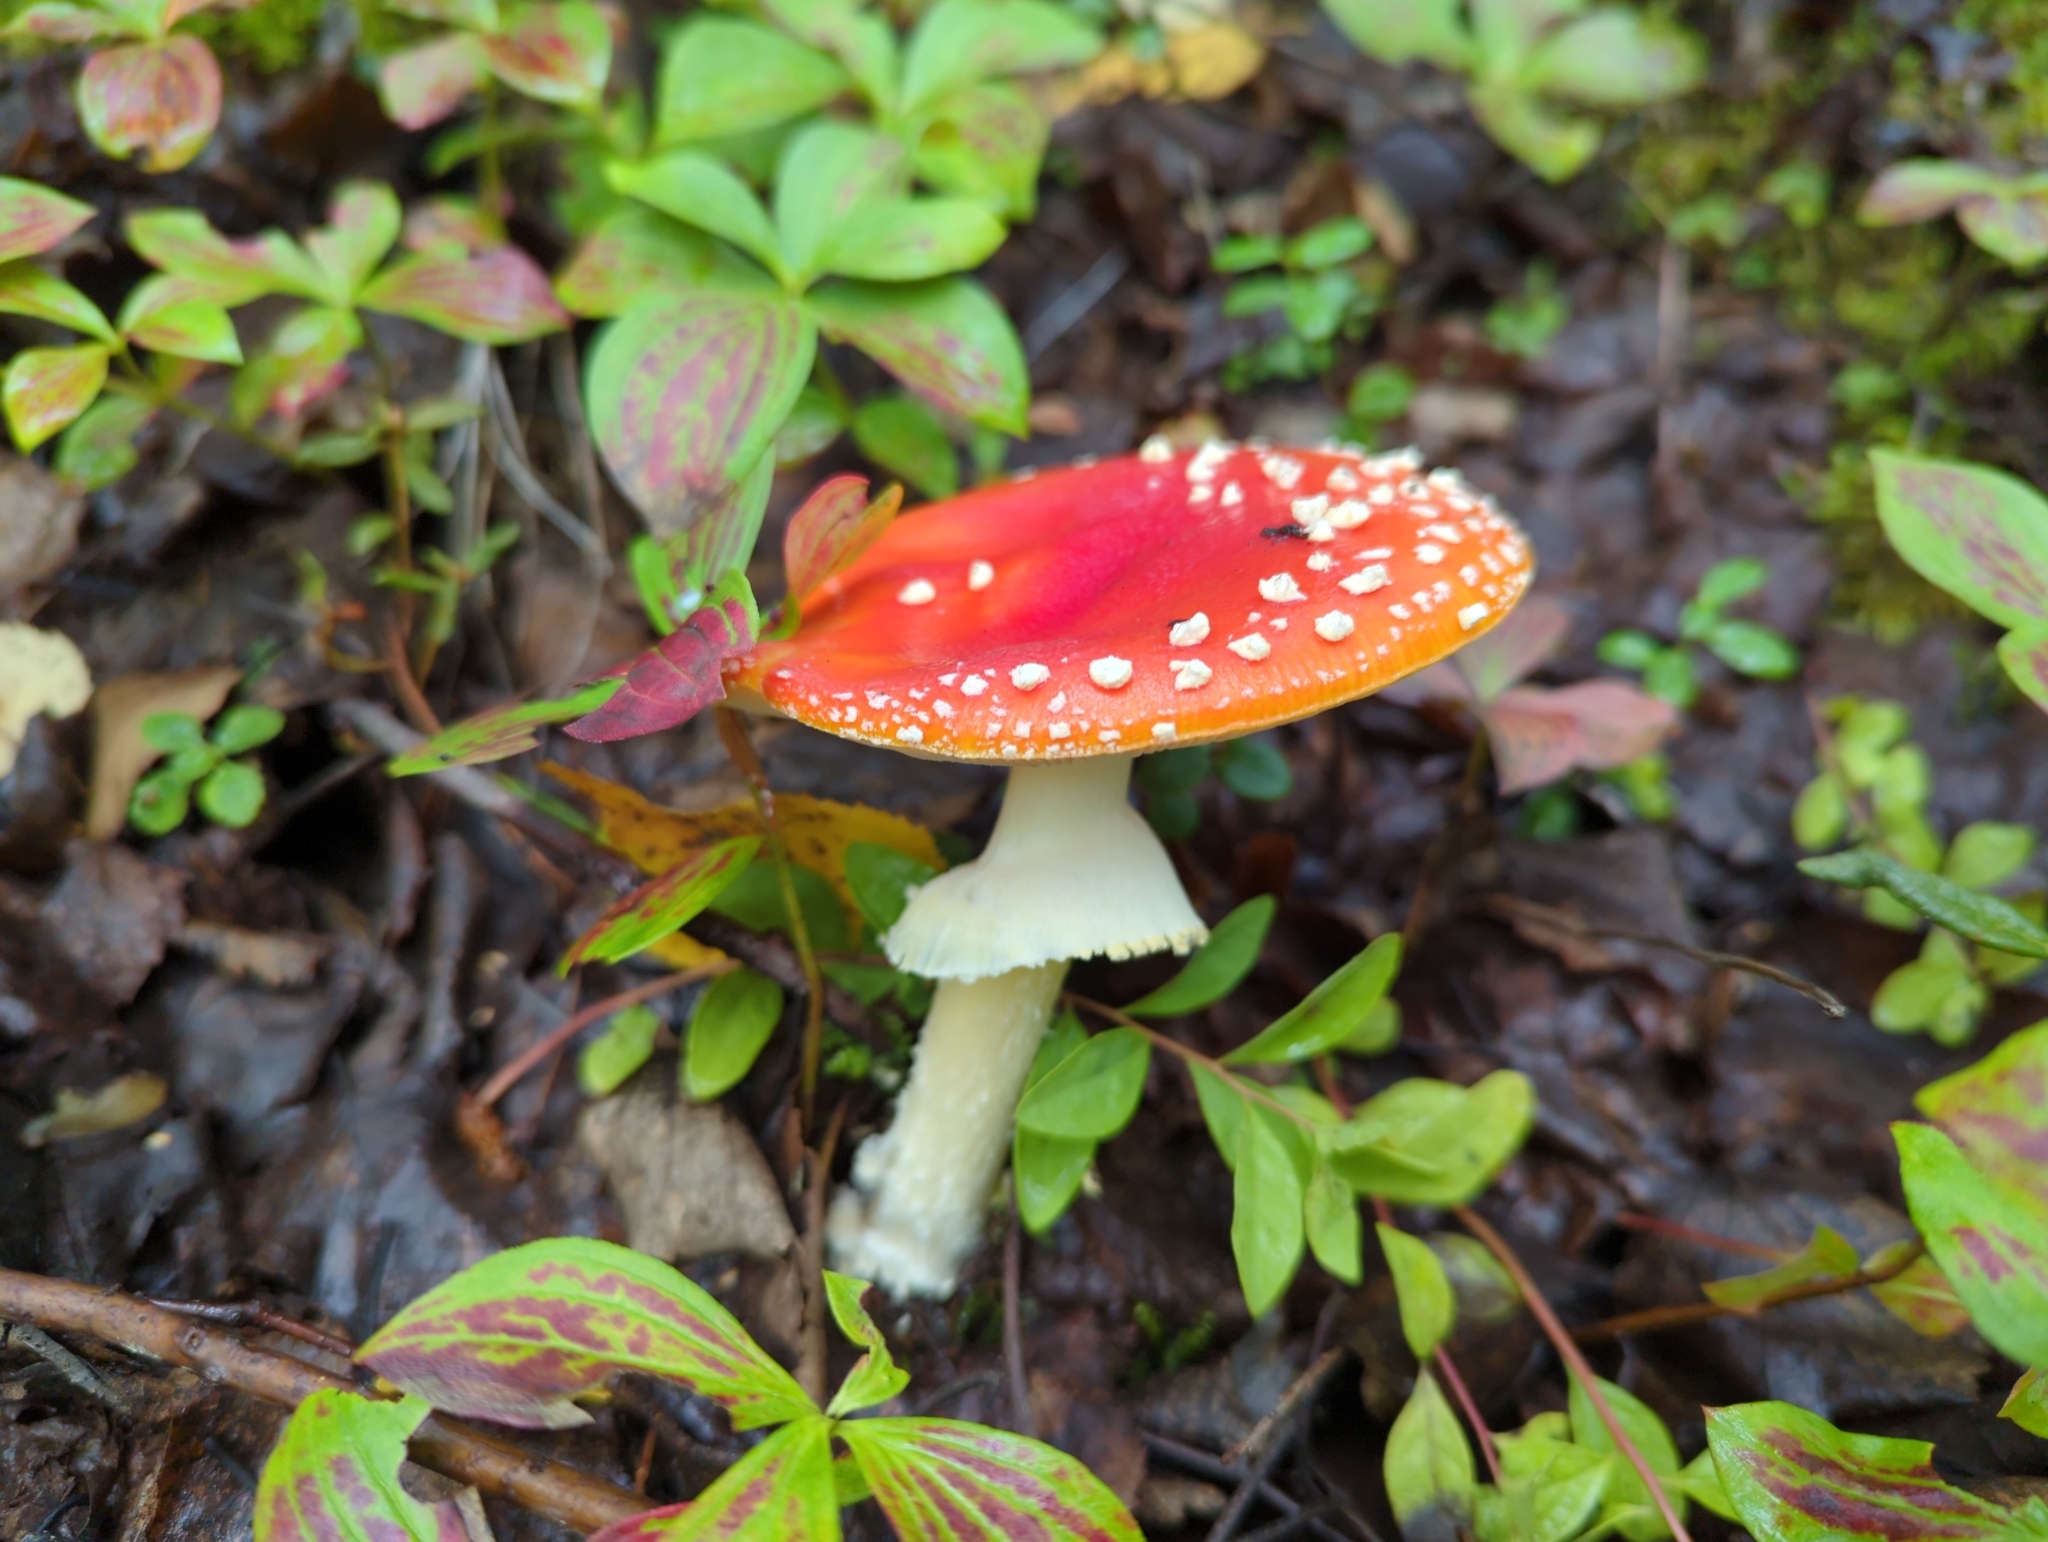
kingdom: Fungi
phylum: Basidiomycota
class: Agaricomycetes
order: Agaricales
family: Amanitaceae
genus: Amanita
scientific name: Amanita muscaria
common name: Fly agaric
